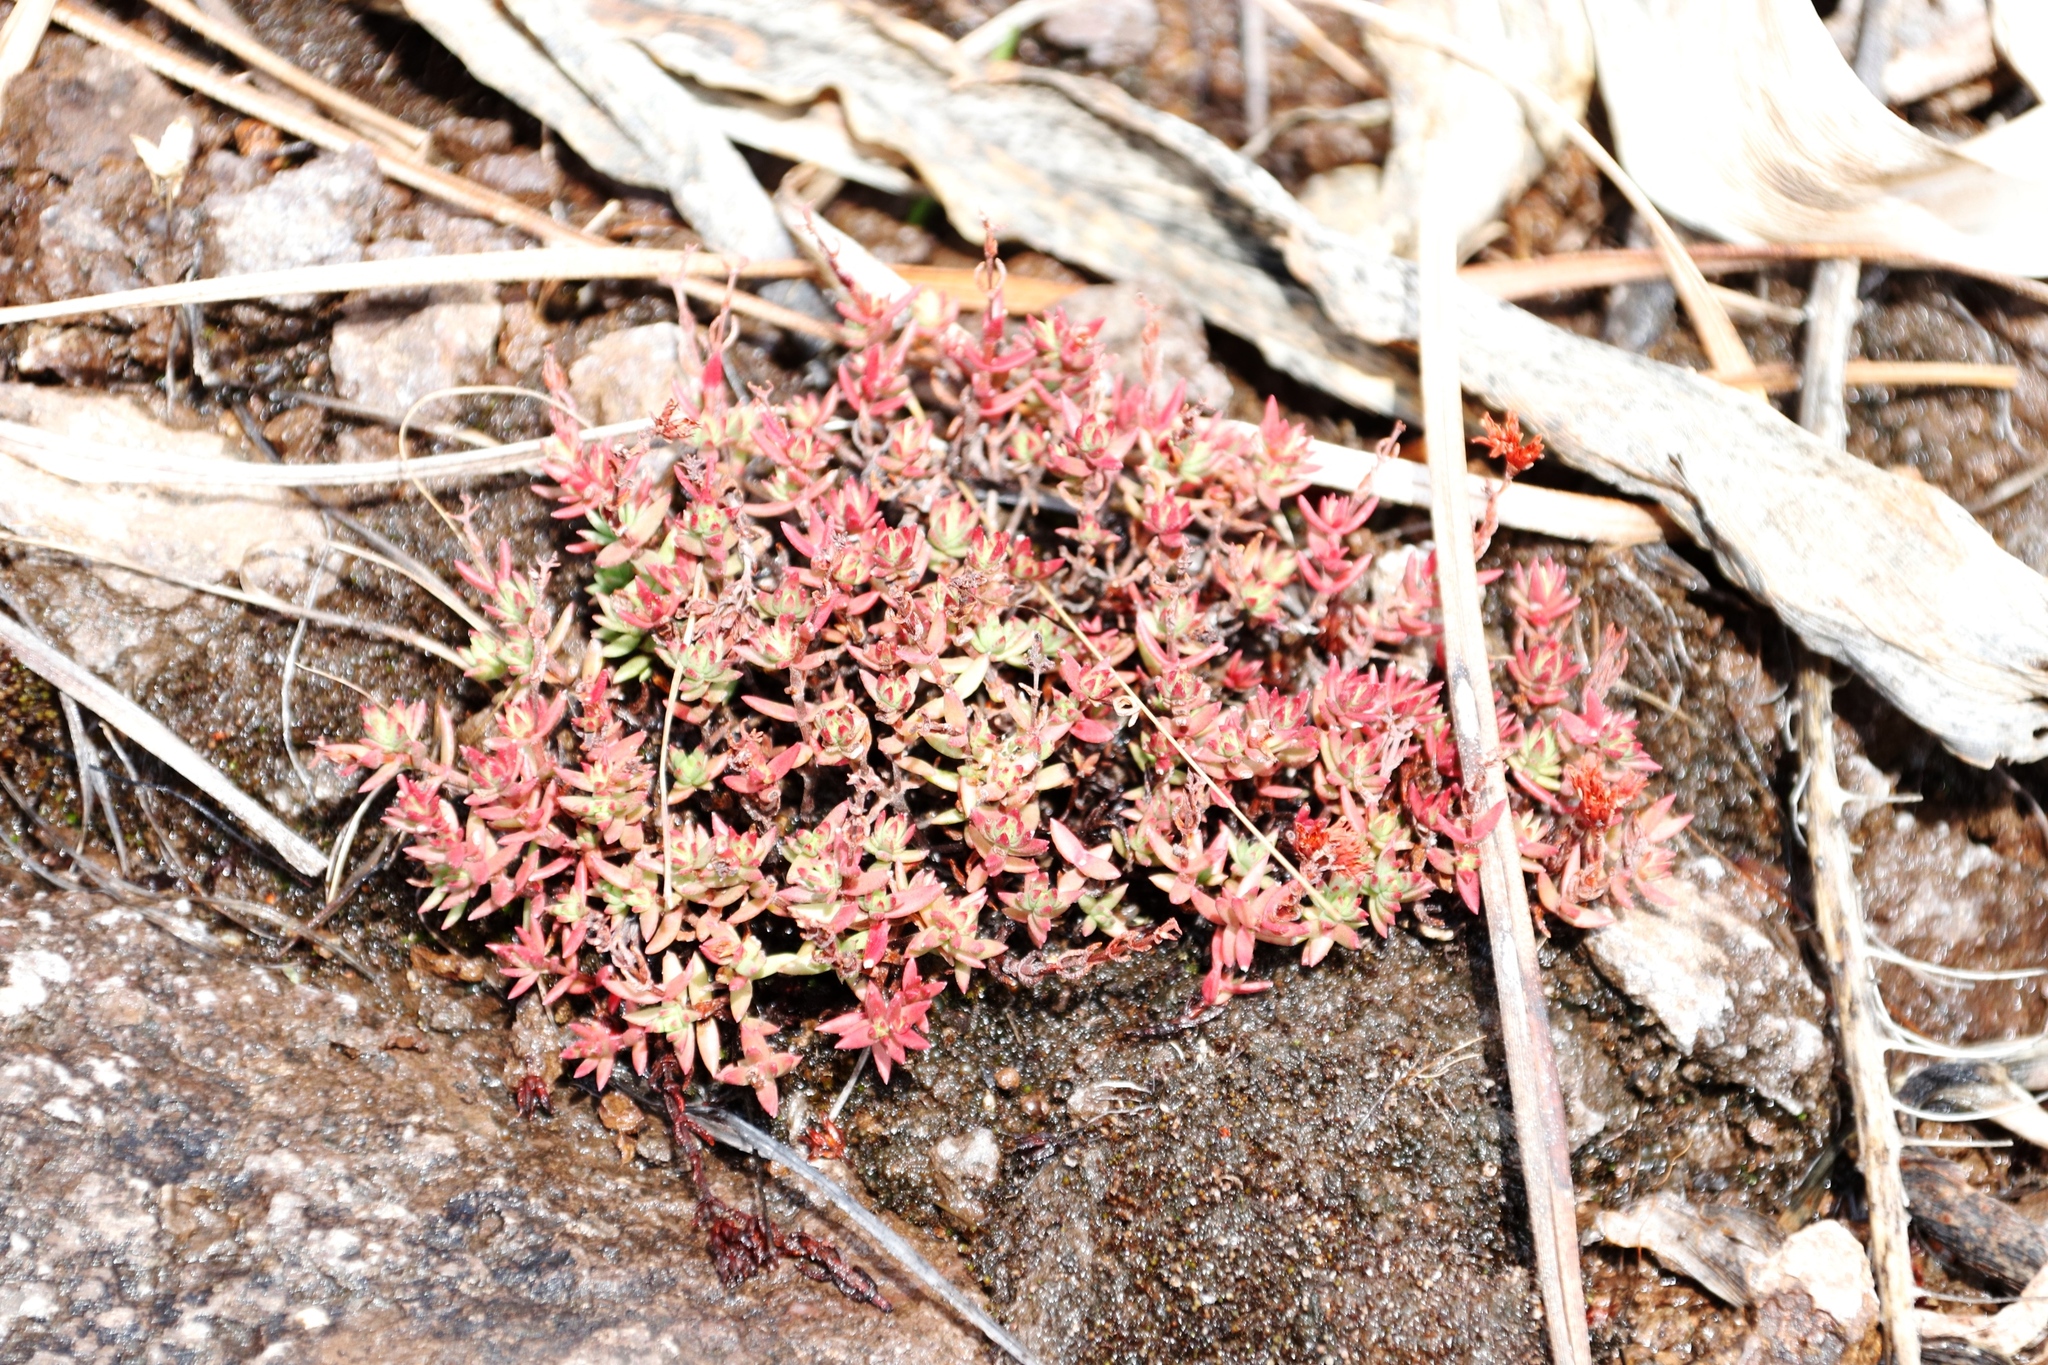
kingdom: Plantae
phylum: Tracheophyta
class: Magnoliopsida
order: Saxifragales
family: Crassulaceae
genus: Crassula
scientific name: Crassula dependens
